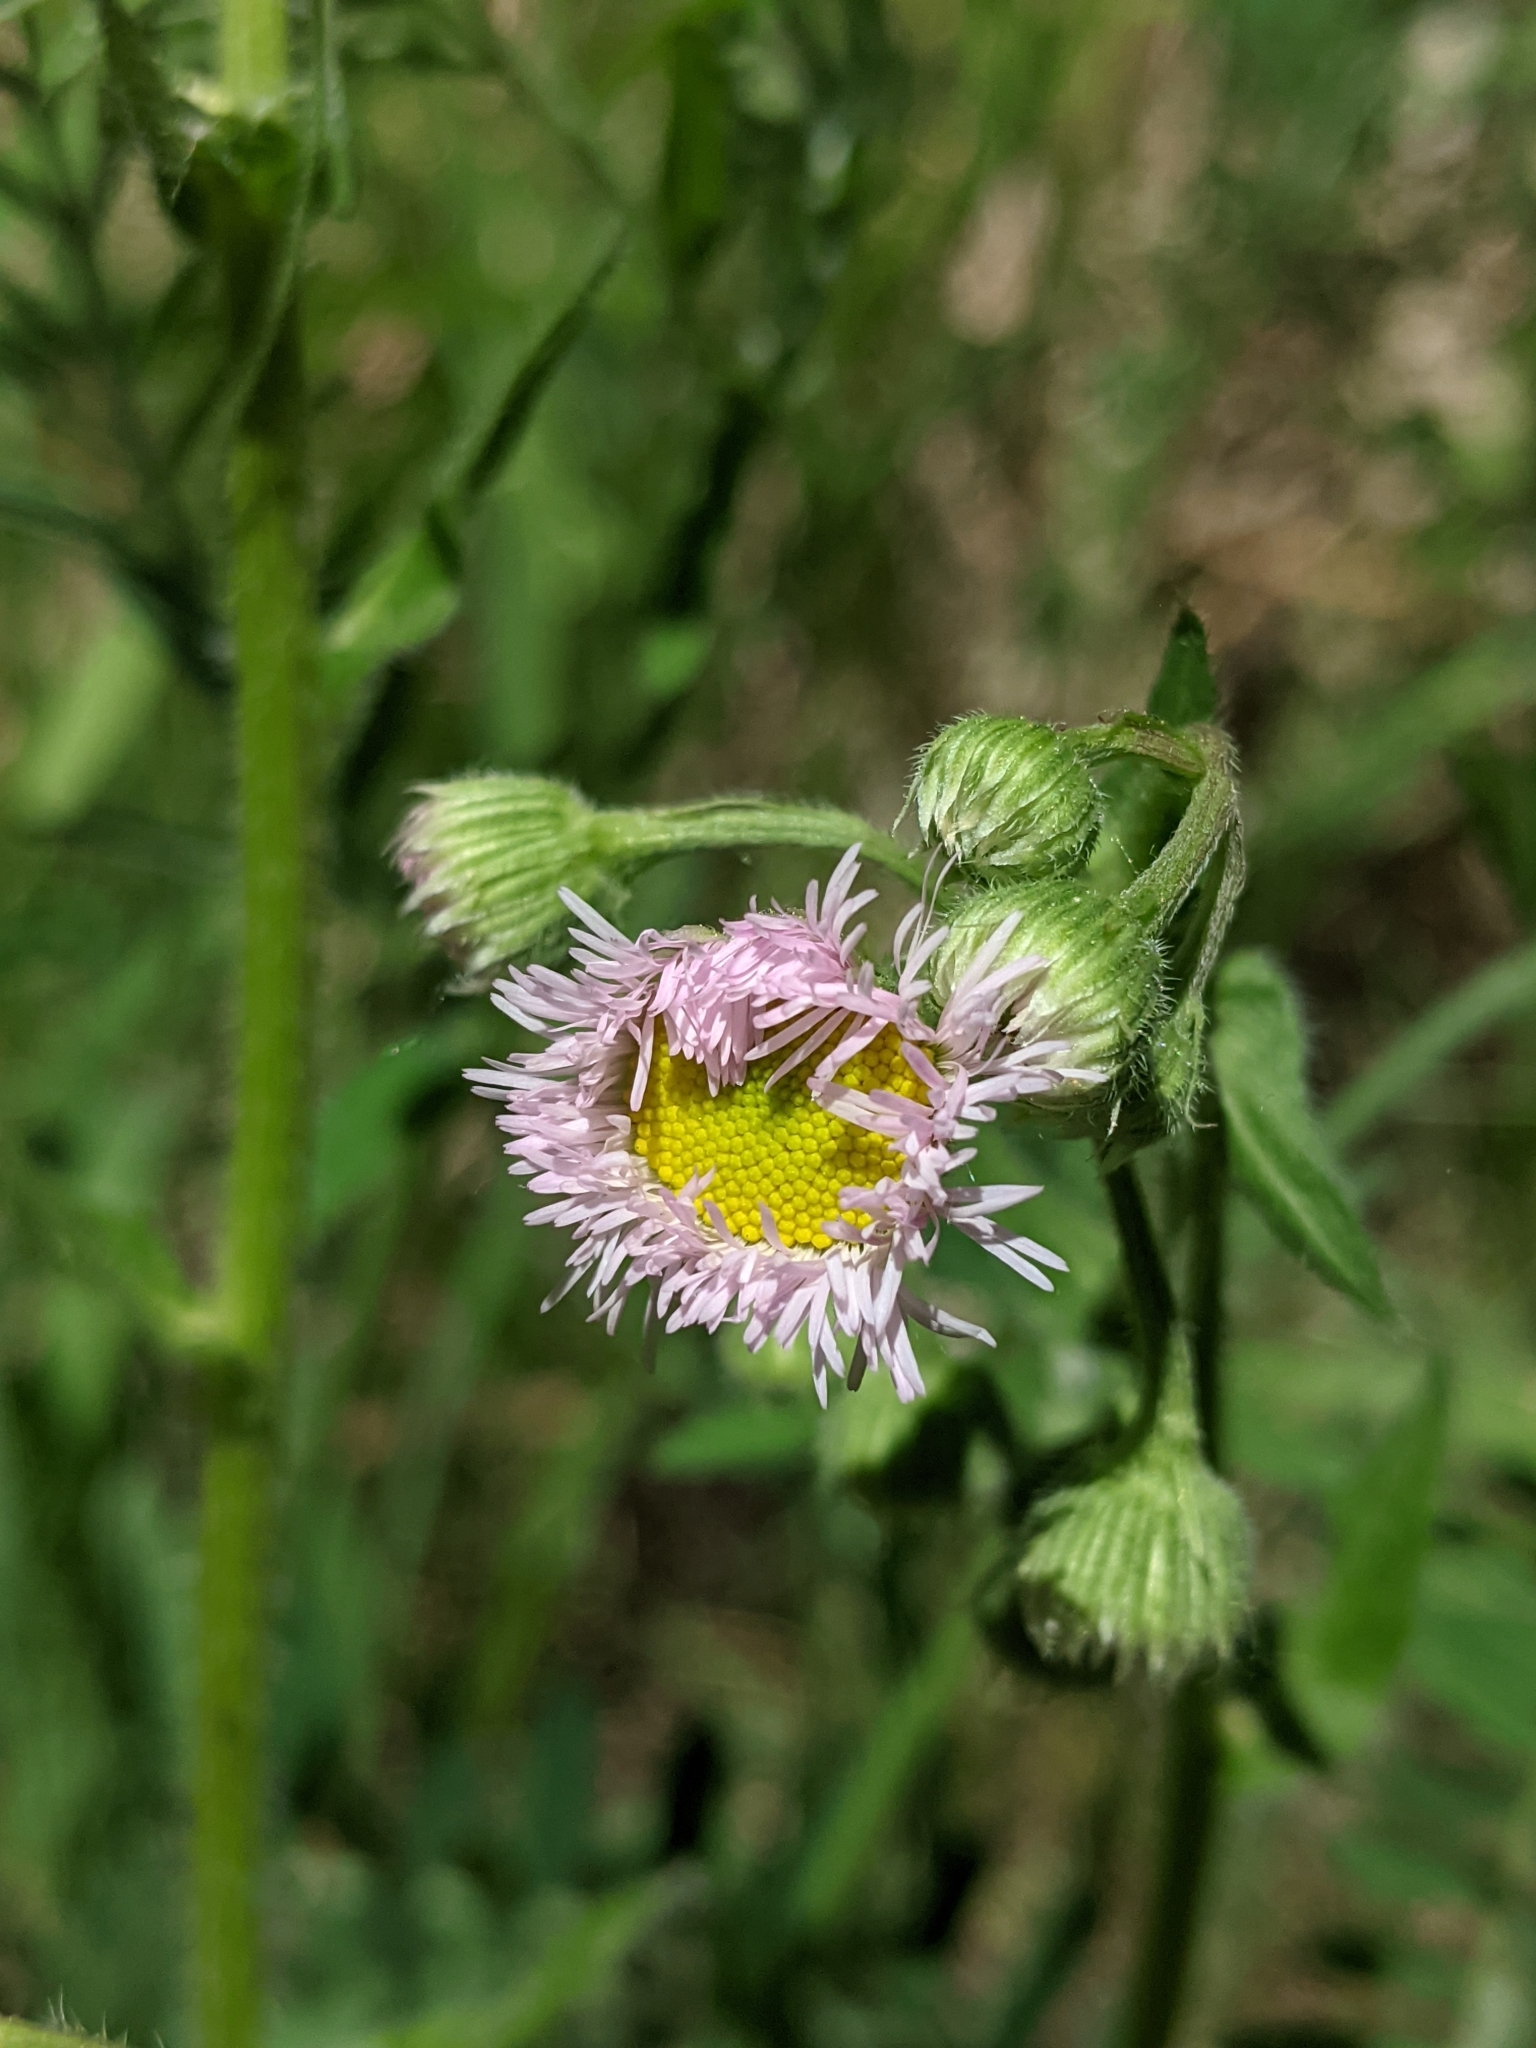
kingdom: Plantae
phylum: Tracheophyta
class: Magnoliopsida
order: Asterales
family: Asteraceae
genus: Erigeron
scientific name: Erigeron philadelphicus
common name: Robin's-plantain
